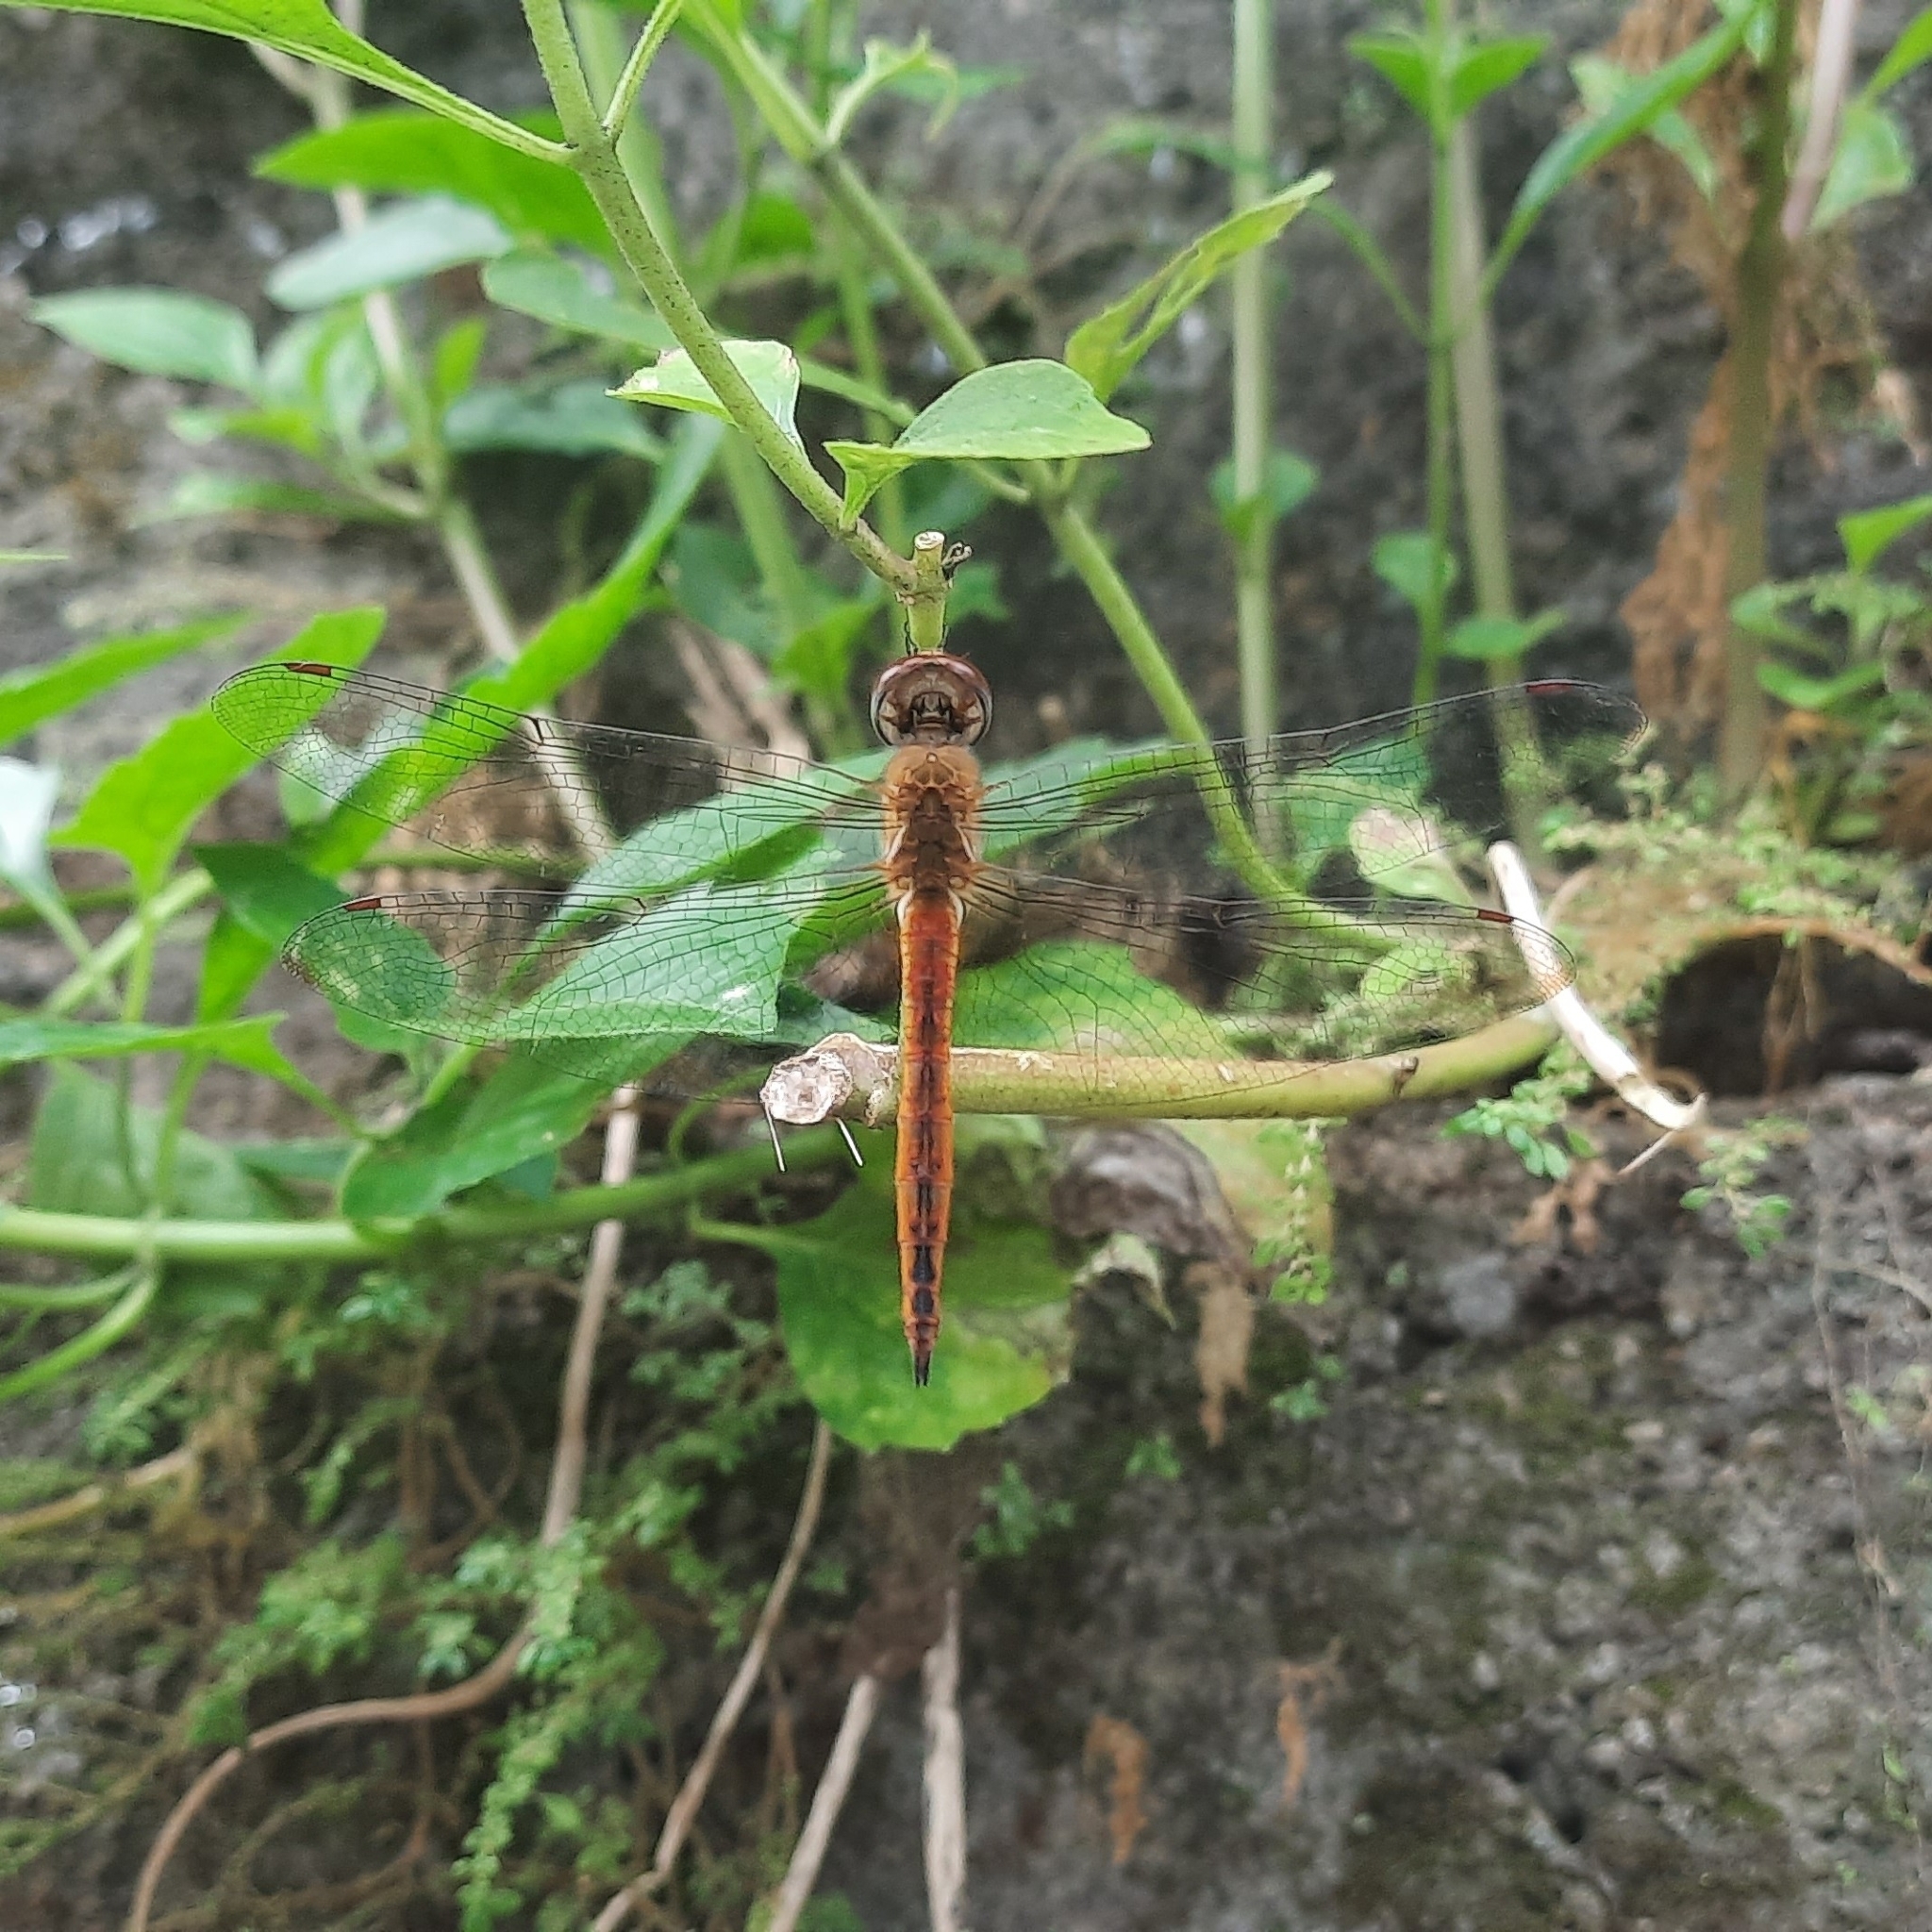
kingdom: Animalia
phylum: Arthropoda
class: Insecta
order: Odonata
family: Libellulidae
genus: Pantala
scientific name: Pantala flavescens
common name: Wandering glider
